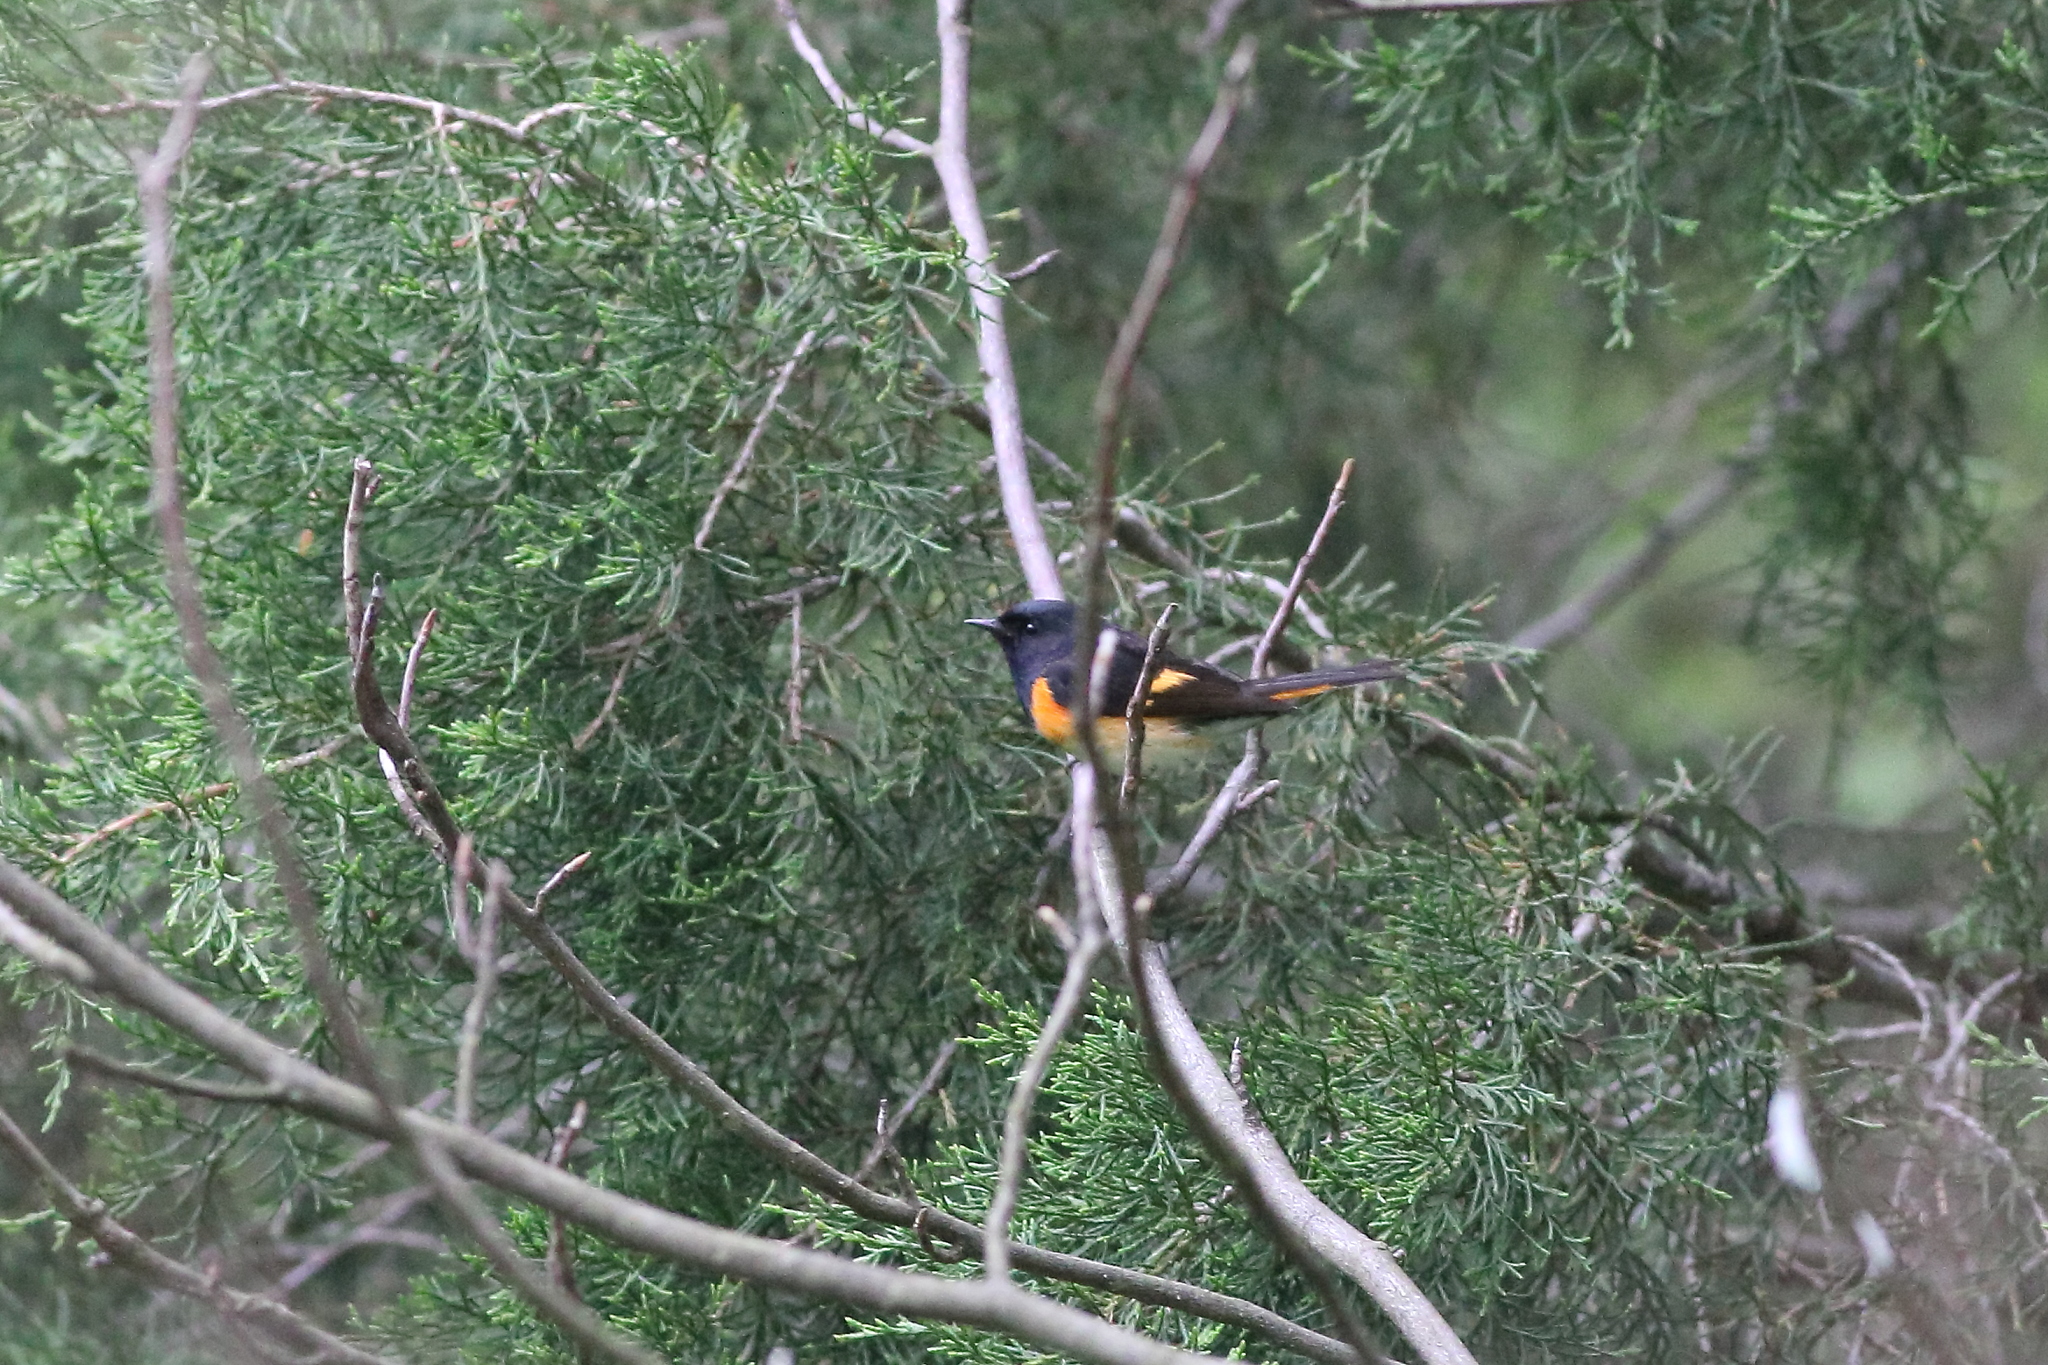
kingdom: Animalia
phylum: Chordata
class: Aves
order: Passeriformes
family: Parulidae
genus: Setophaga
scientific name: Setophaga ruticilla
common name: American redstart
